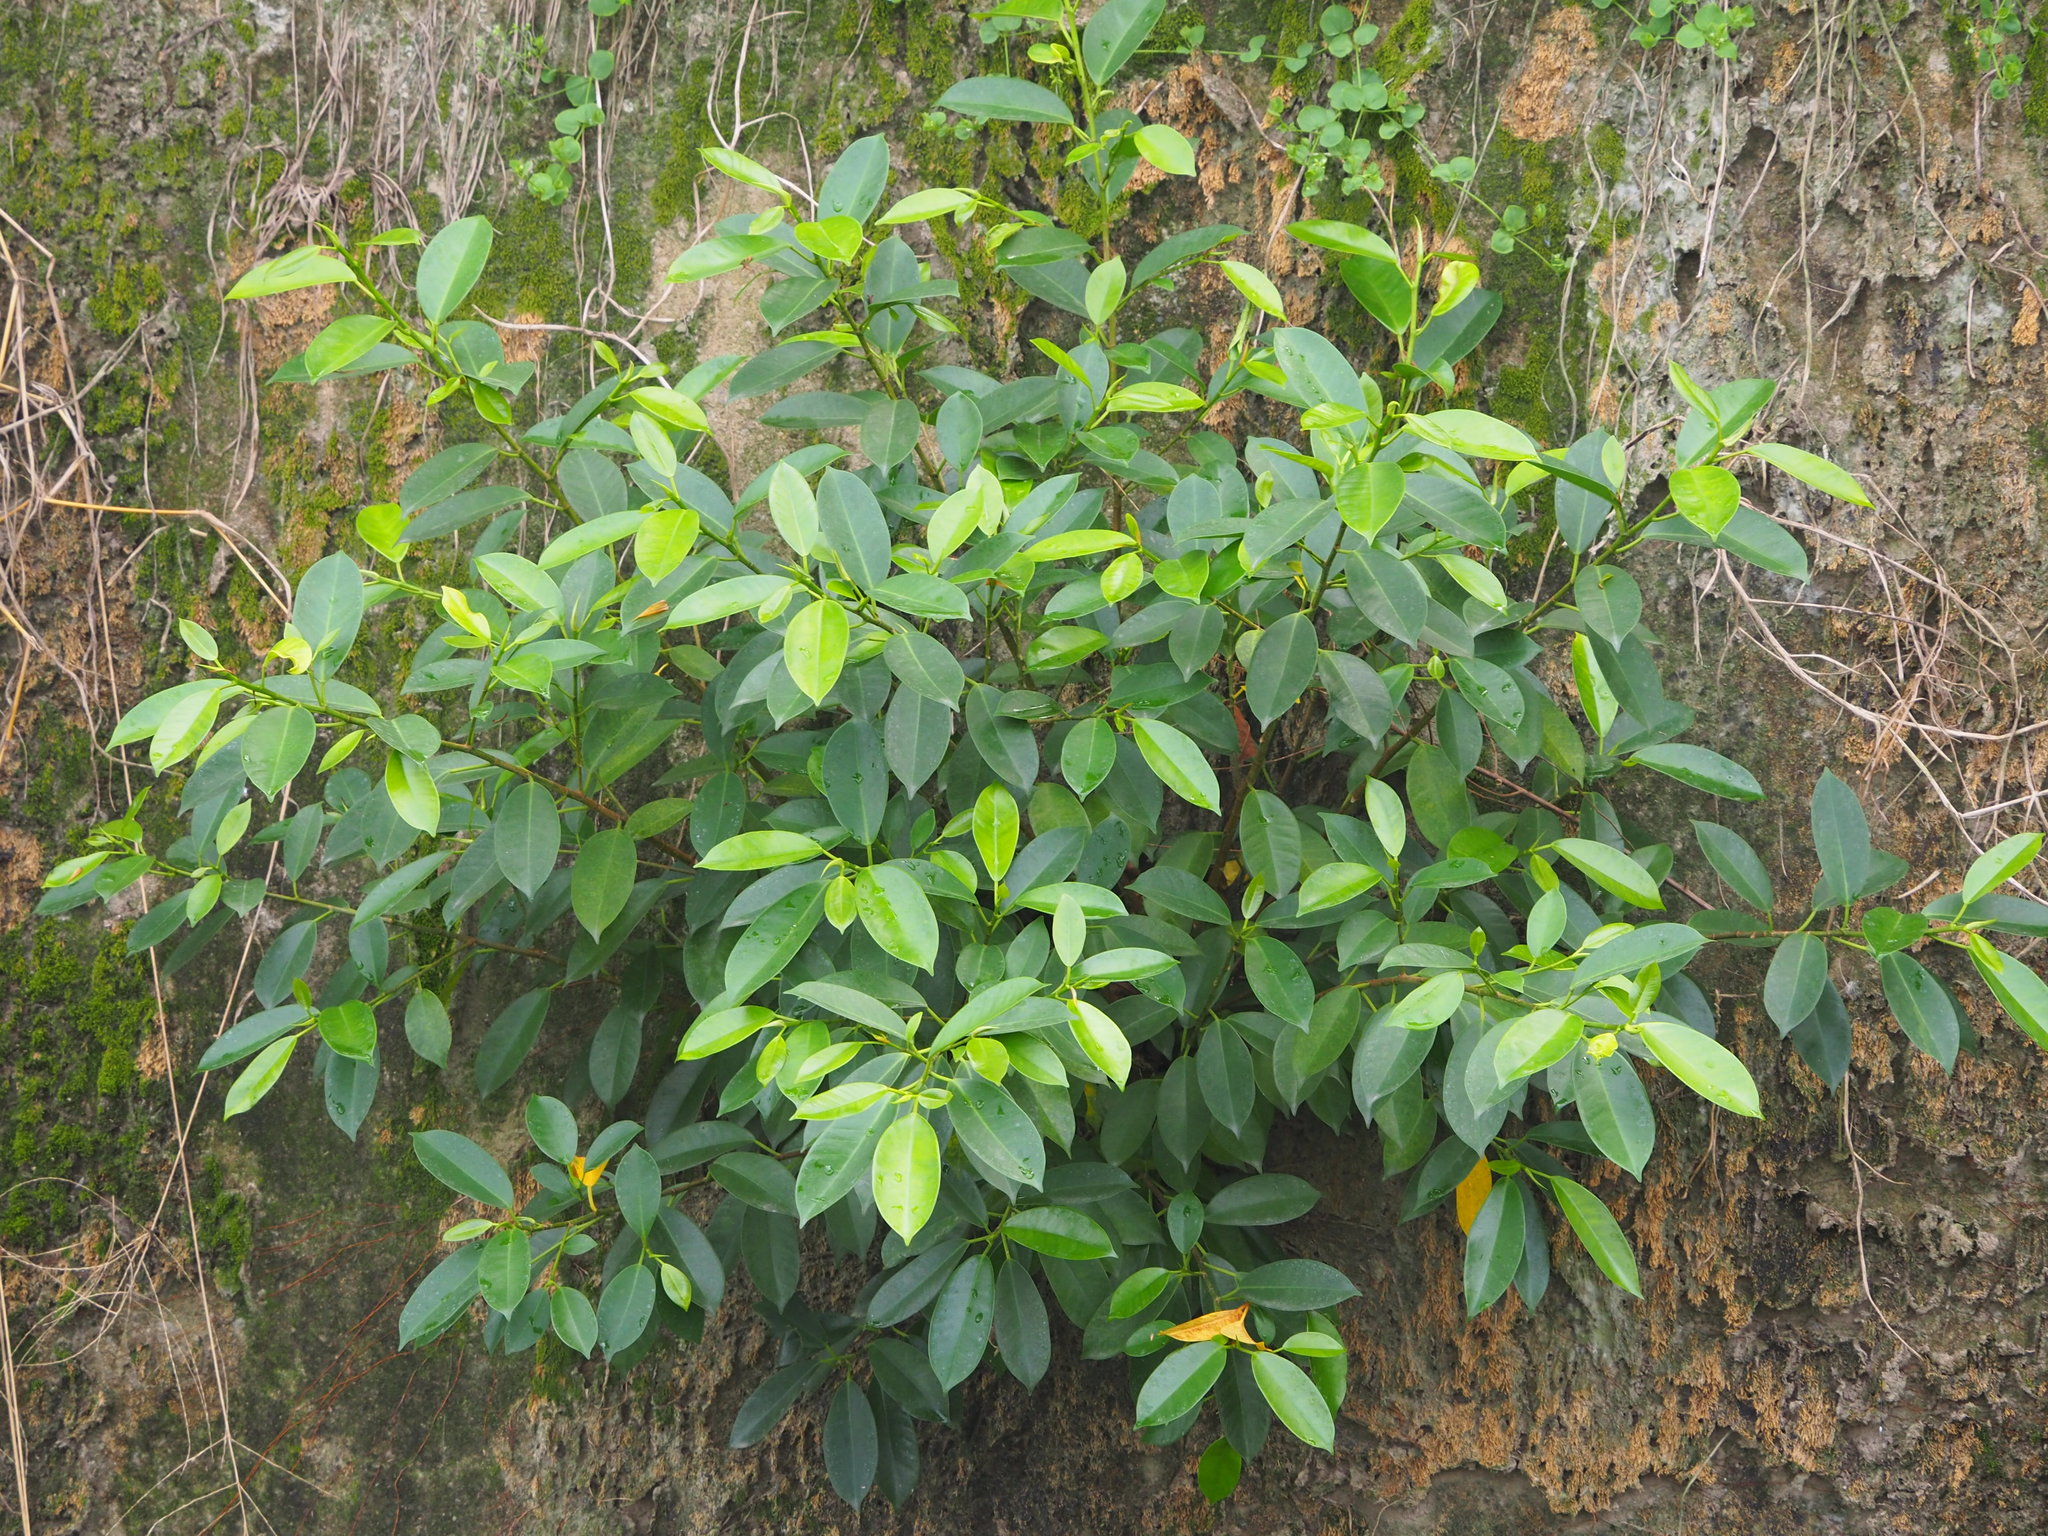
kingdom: Plantae
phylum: Tracheophyta
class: Magnoliopsida
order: Rosales
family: Moraceae
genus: Ficus
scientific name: Ficus microcarpa
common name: Chinese banyan
